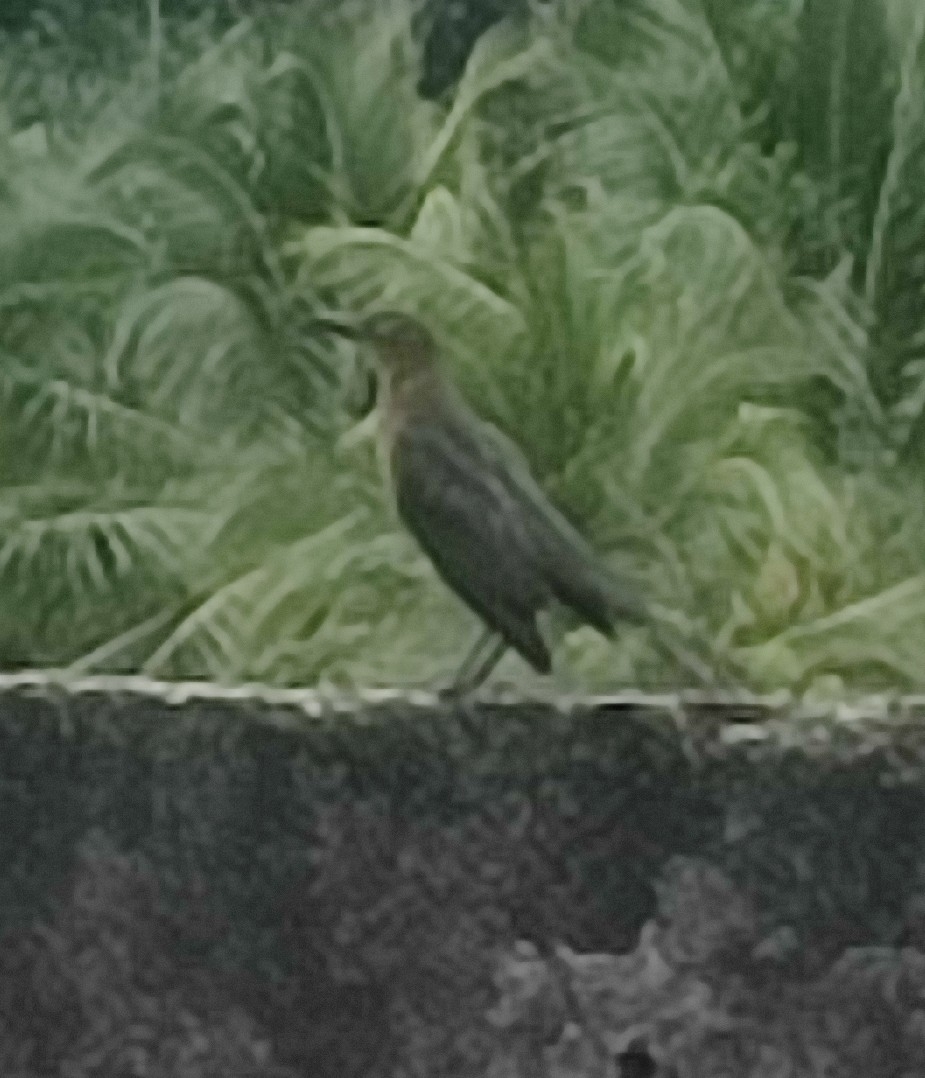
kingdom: Animalia
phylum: Chordata
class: Aves
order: Passeriformes
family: Icteridae
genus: Quiscalus
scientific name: Quiscalus mexicanus
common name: Great-tailed grackle
